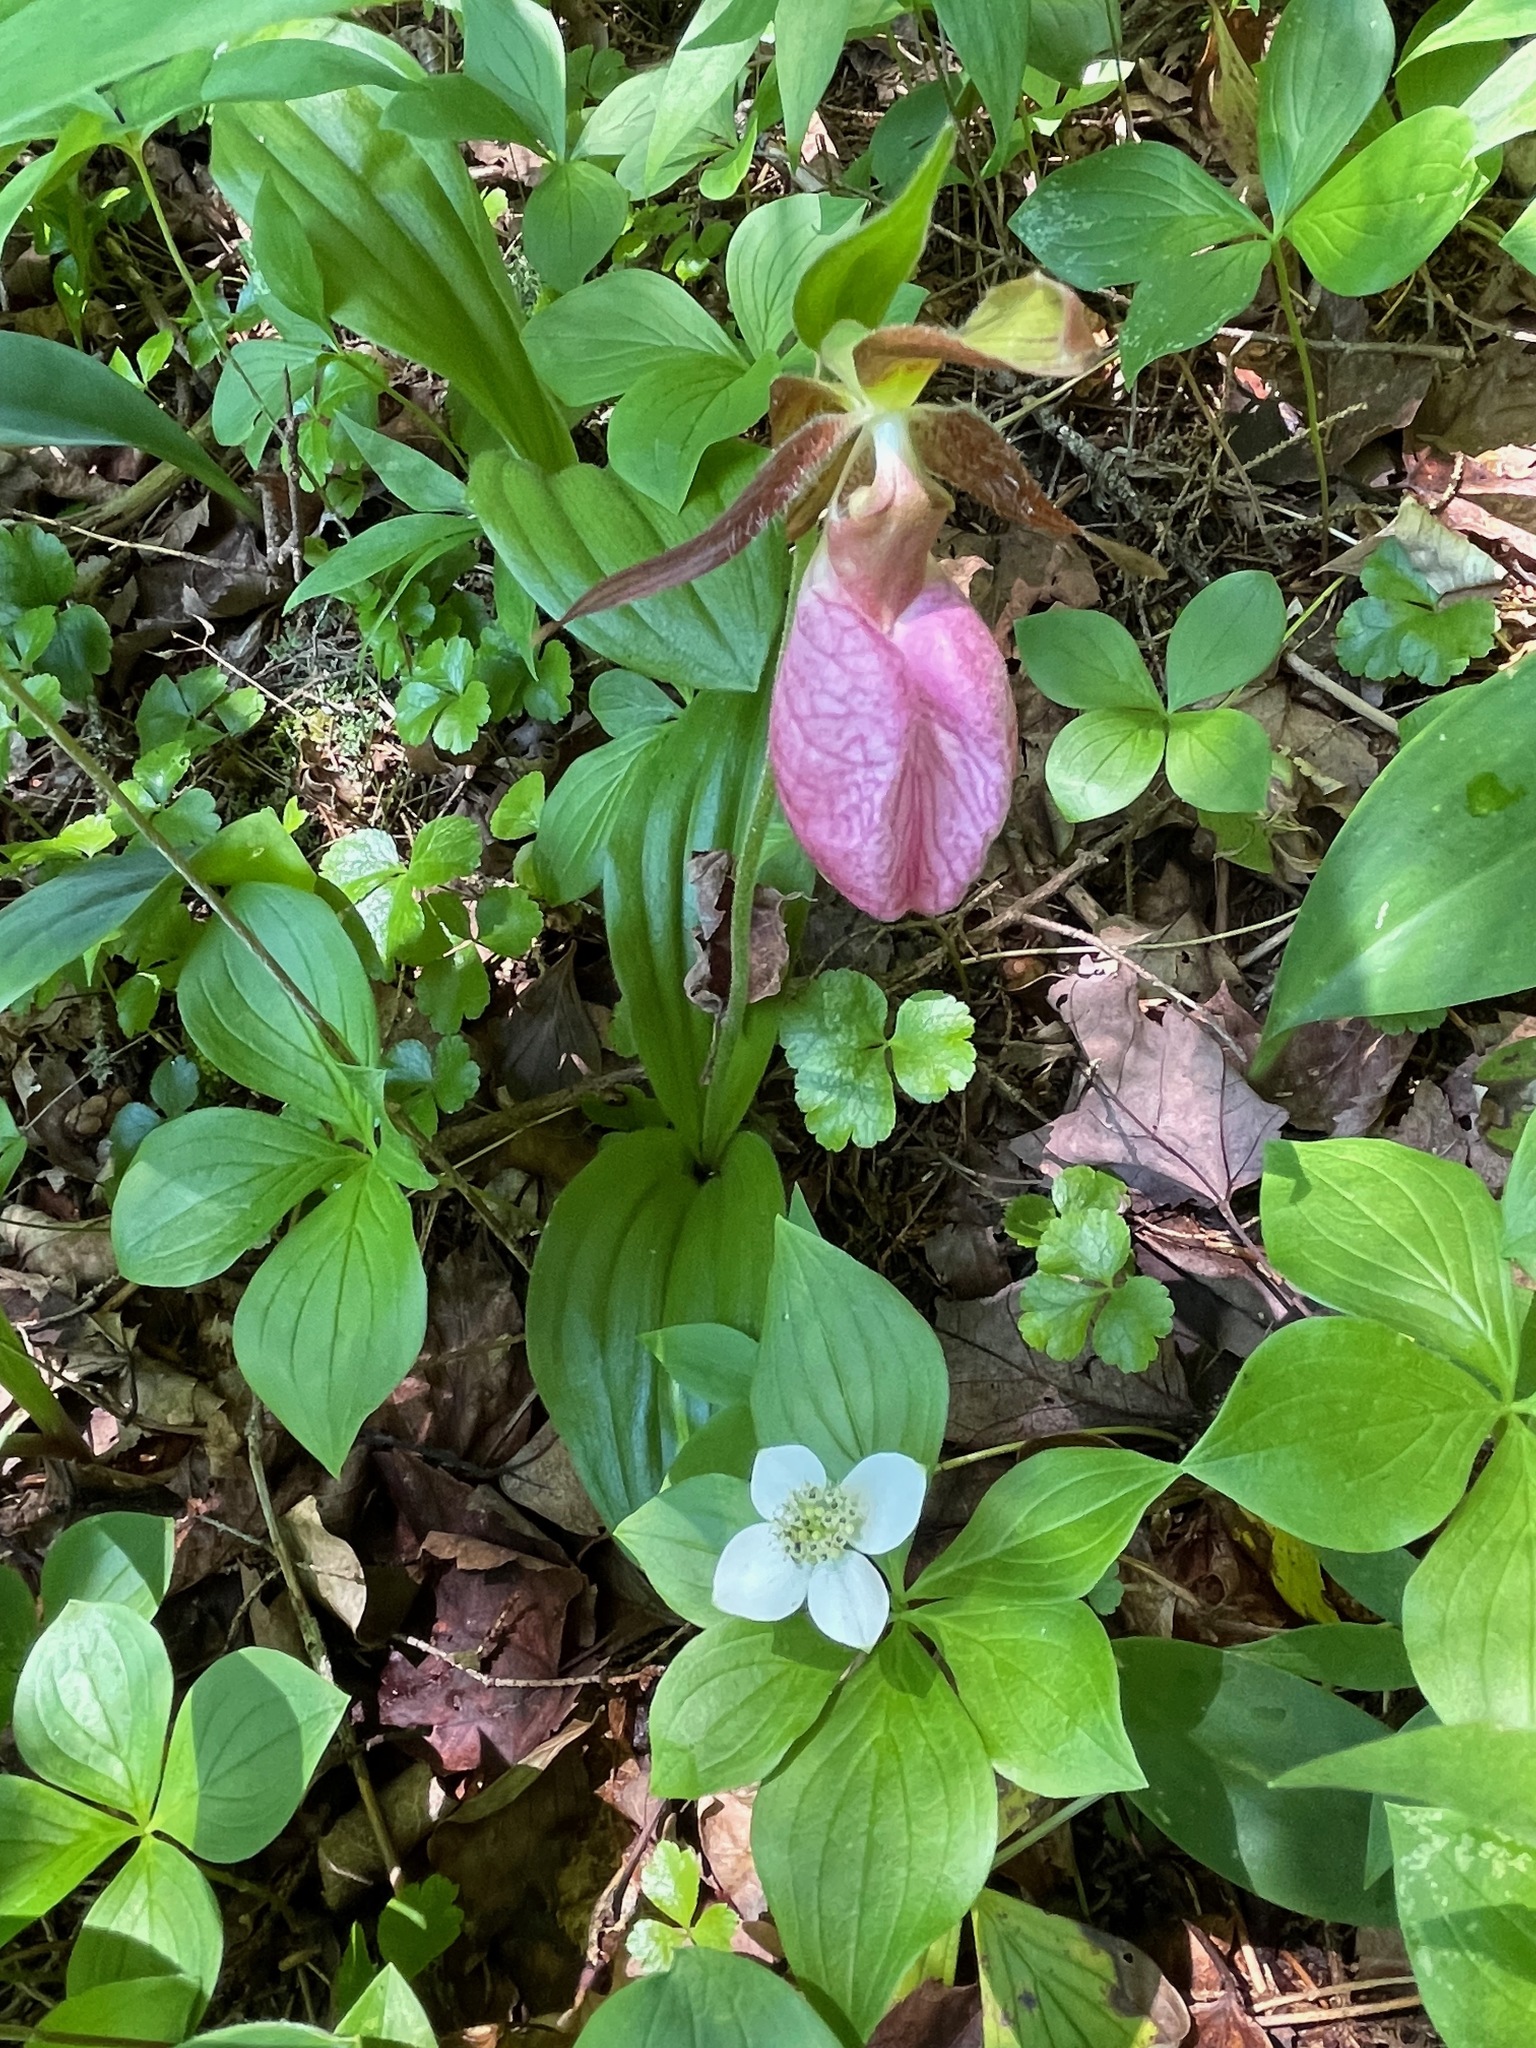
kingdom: Plantae
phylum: Tracheophyta
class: Liliopsida
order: Asparagales
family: Orchidaceae
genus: Cypripedium
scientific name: Cypripedium acaule
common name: Pink lady's-slipper
